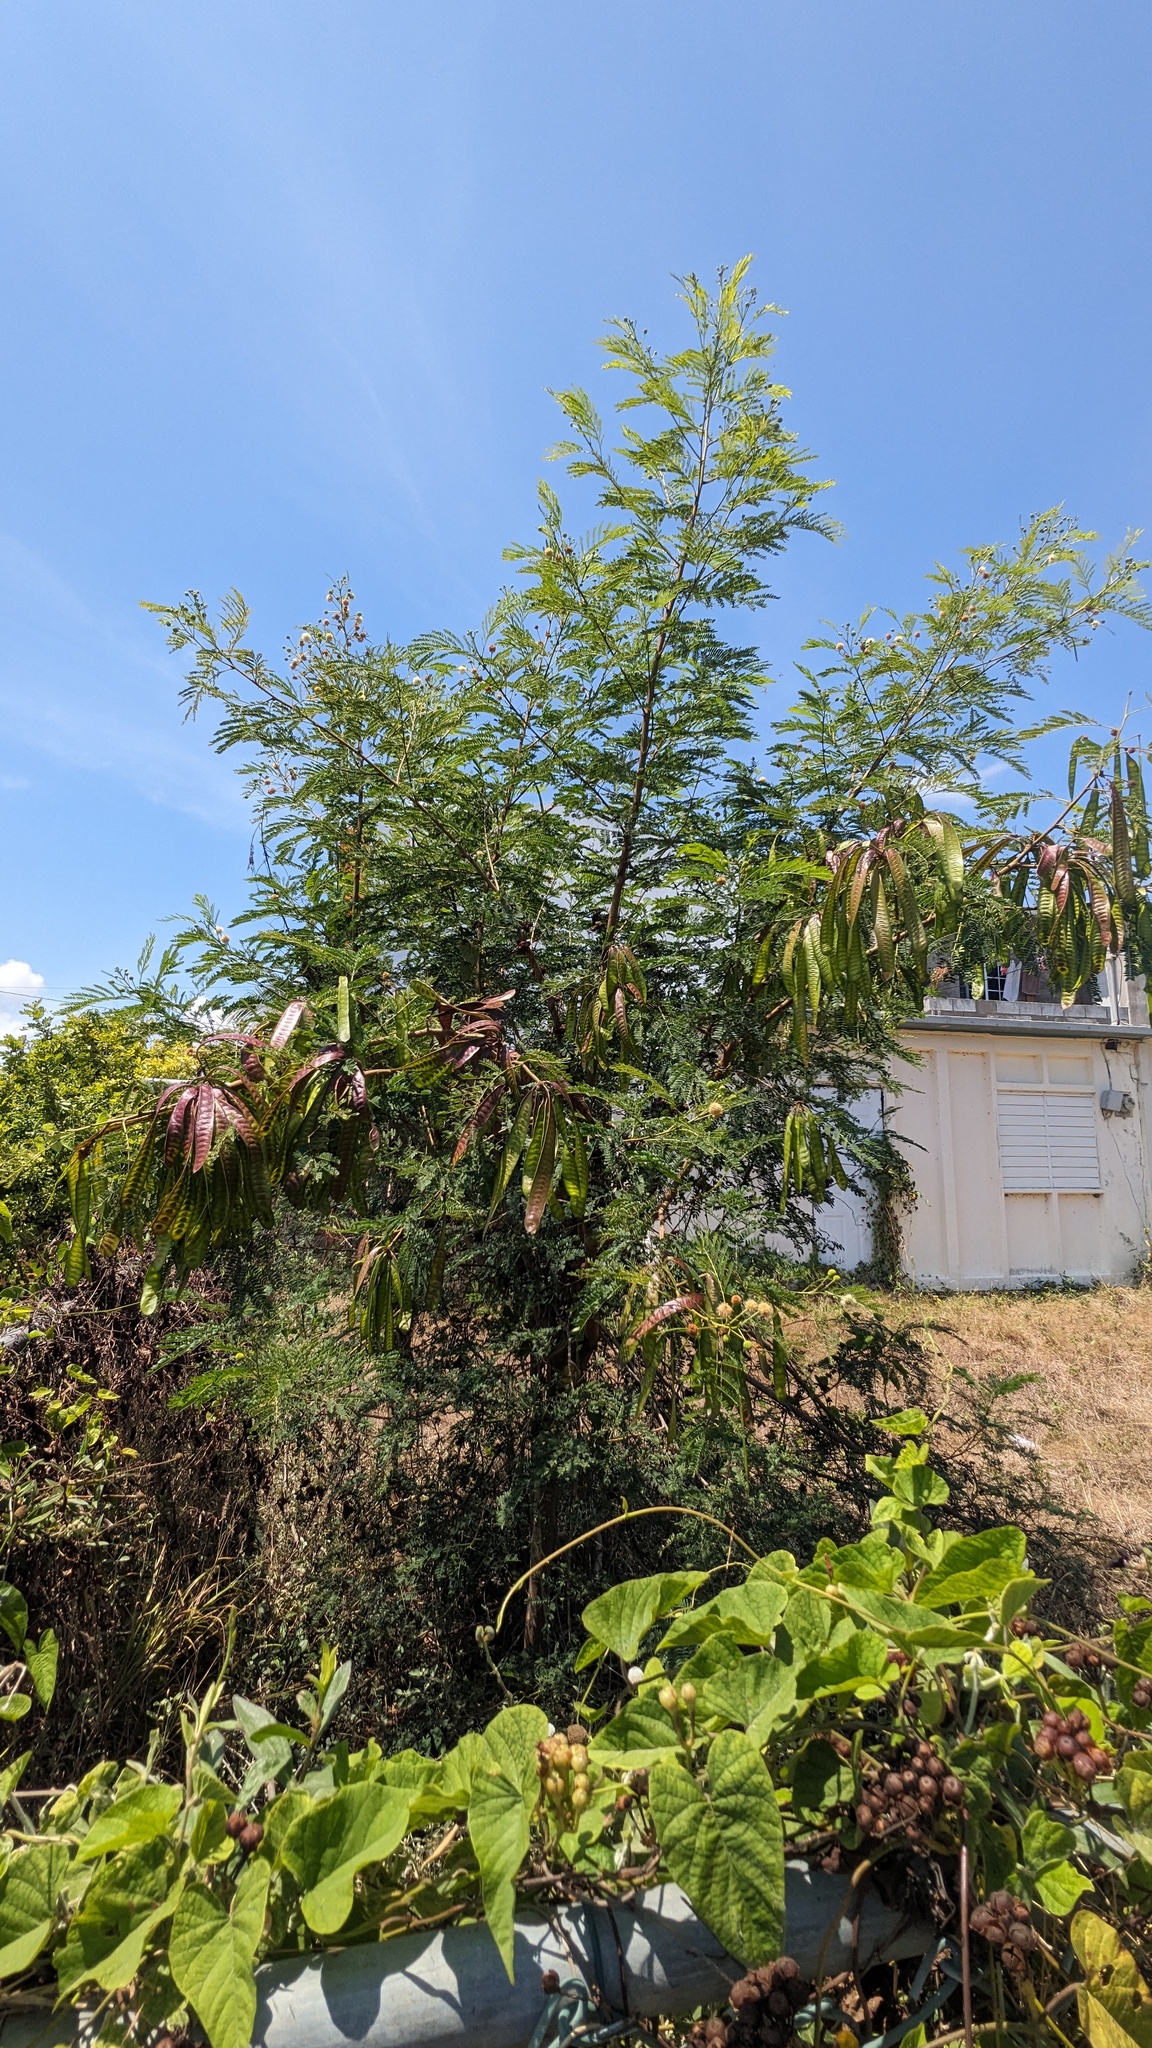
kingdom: Plantae
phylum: Tracheophyta
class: Magnoliopsida
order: Fabales
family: Fabaceae
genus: Leucaena
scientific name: Leucaena leucocephala
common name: White leadtree
